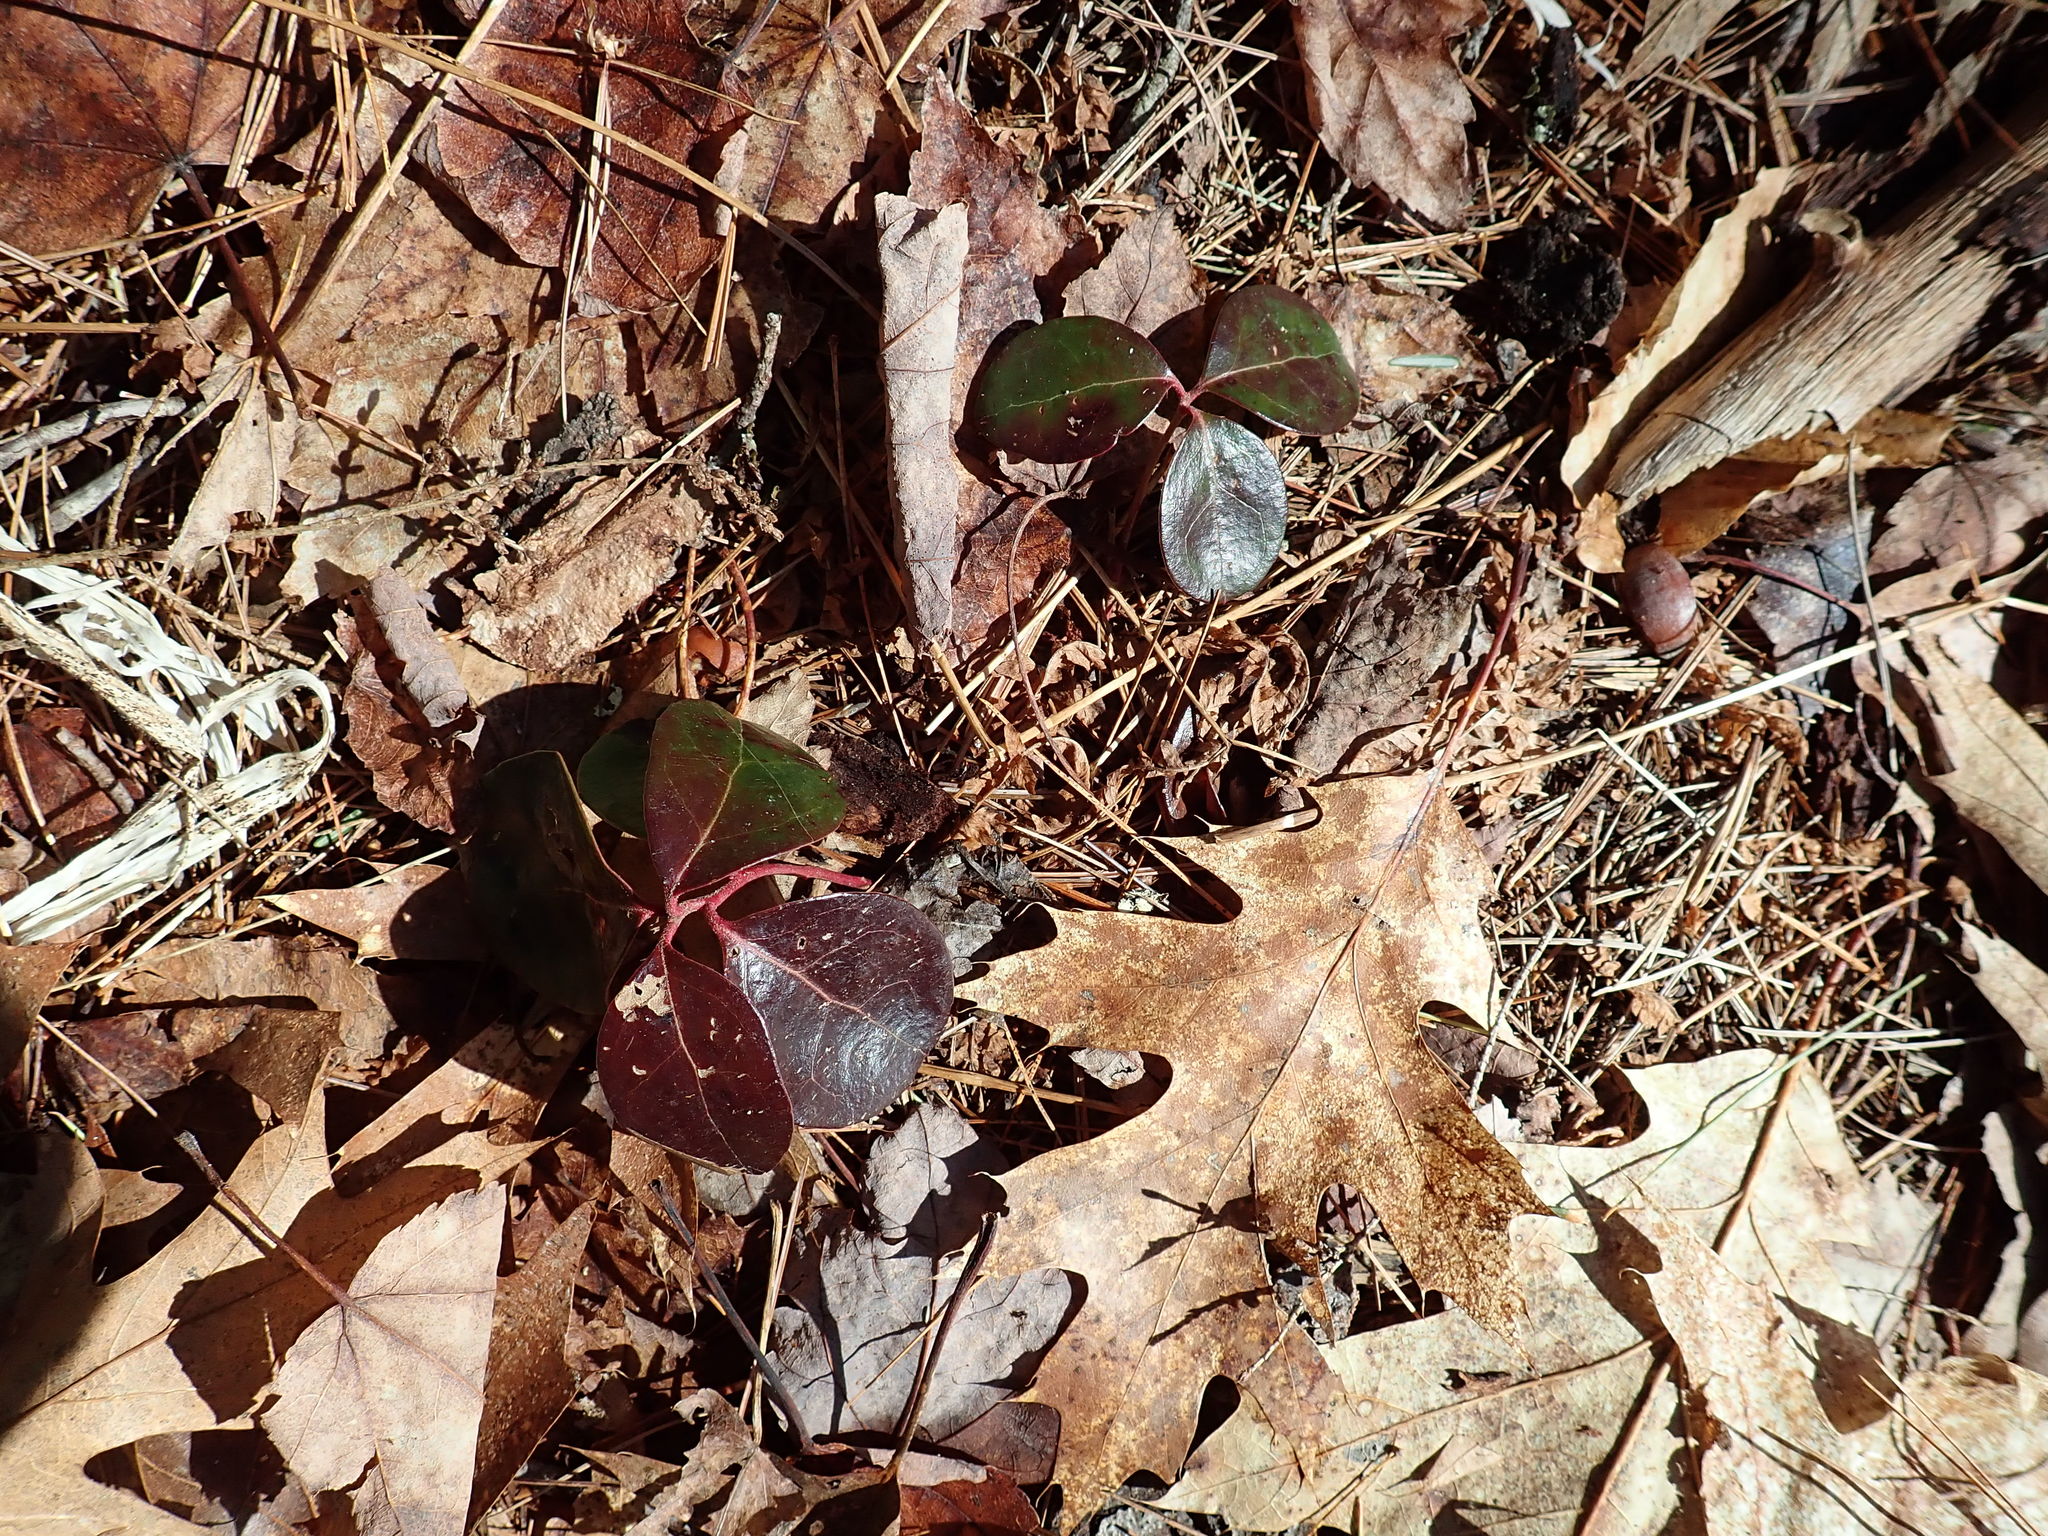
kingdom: Plantae
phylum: Tracheophyta
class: Magnoliopsida
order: Ericales
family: Ericaceae
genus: Gaultheria
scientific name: Gaultheria procumbens
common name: Checkerberry
